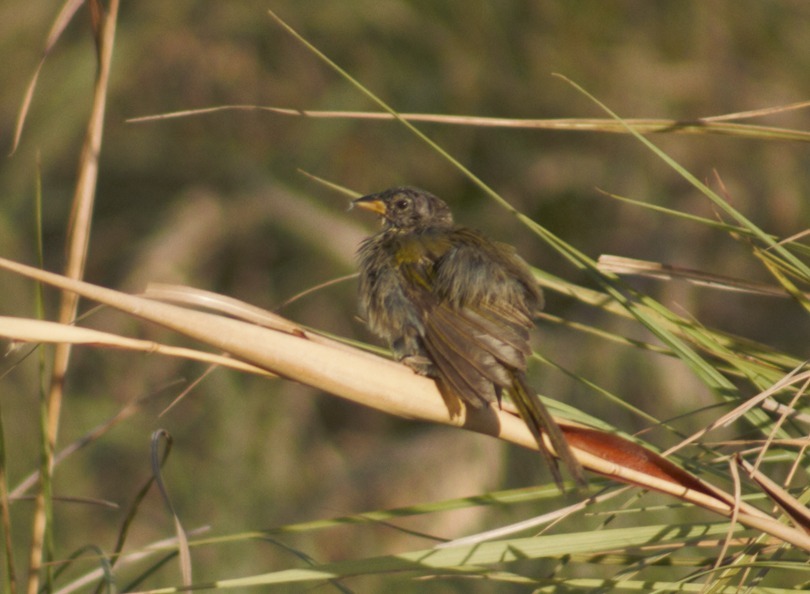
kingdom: Animalia
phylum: Chordata
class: Aves
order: Passeriformes
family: Thraupidae
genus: Embernagra
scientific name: Embernagra platensis
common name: Pampa finch
